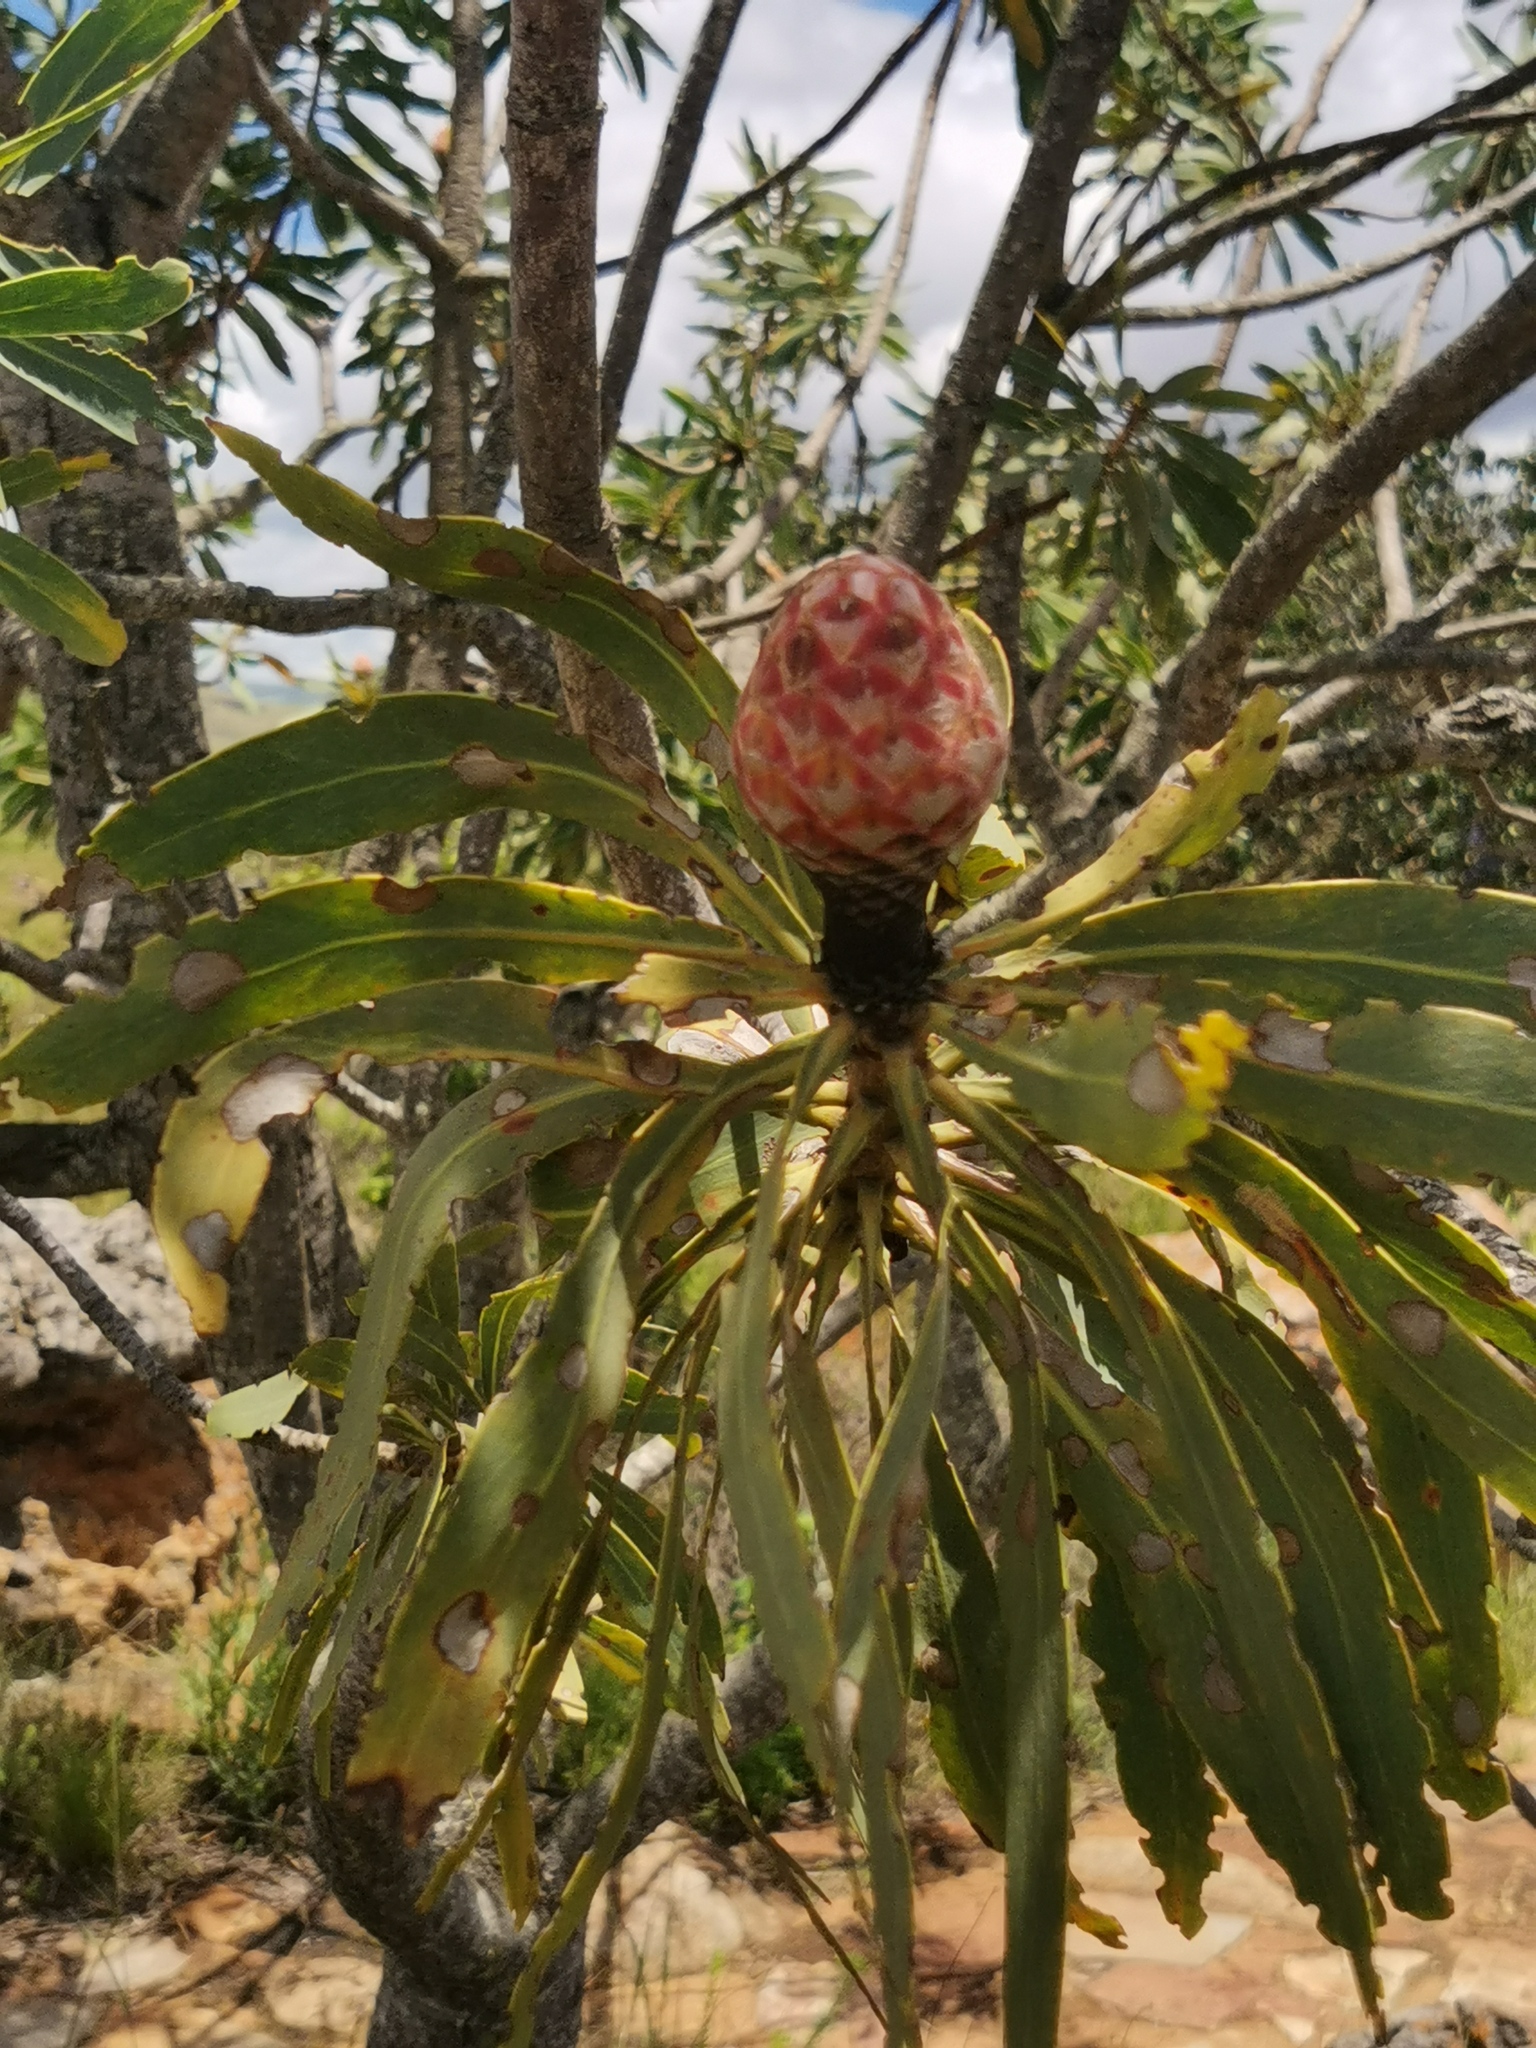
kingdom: Plantae
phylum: Tracheophyta
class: Magnoliopsida
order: Proteales
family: Proteaceae
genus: Protea
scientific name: Protea caffra
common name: Common sugarbush
